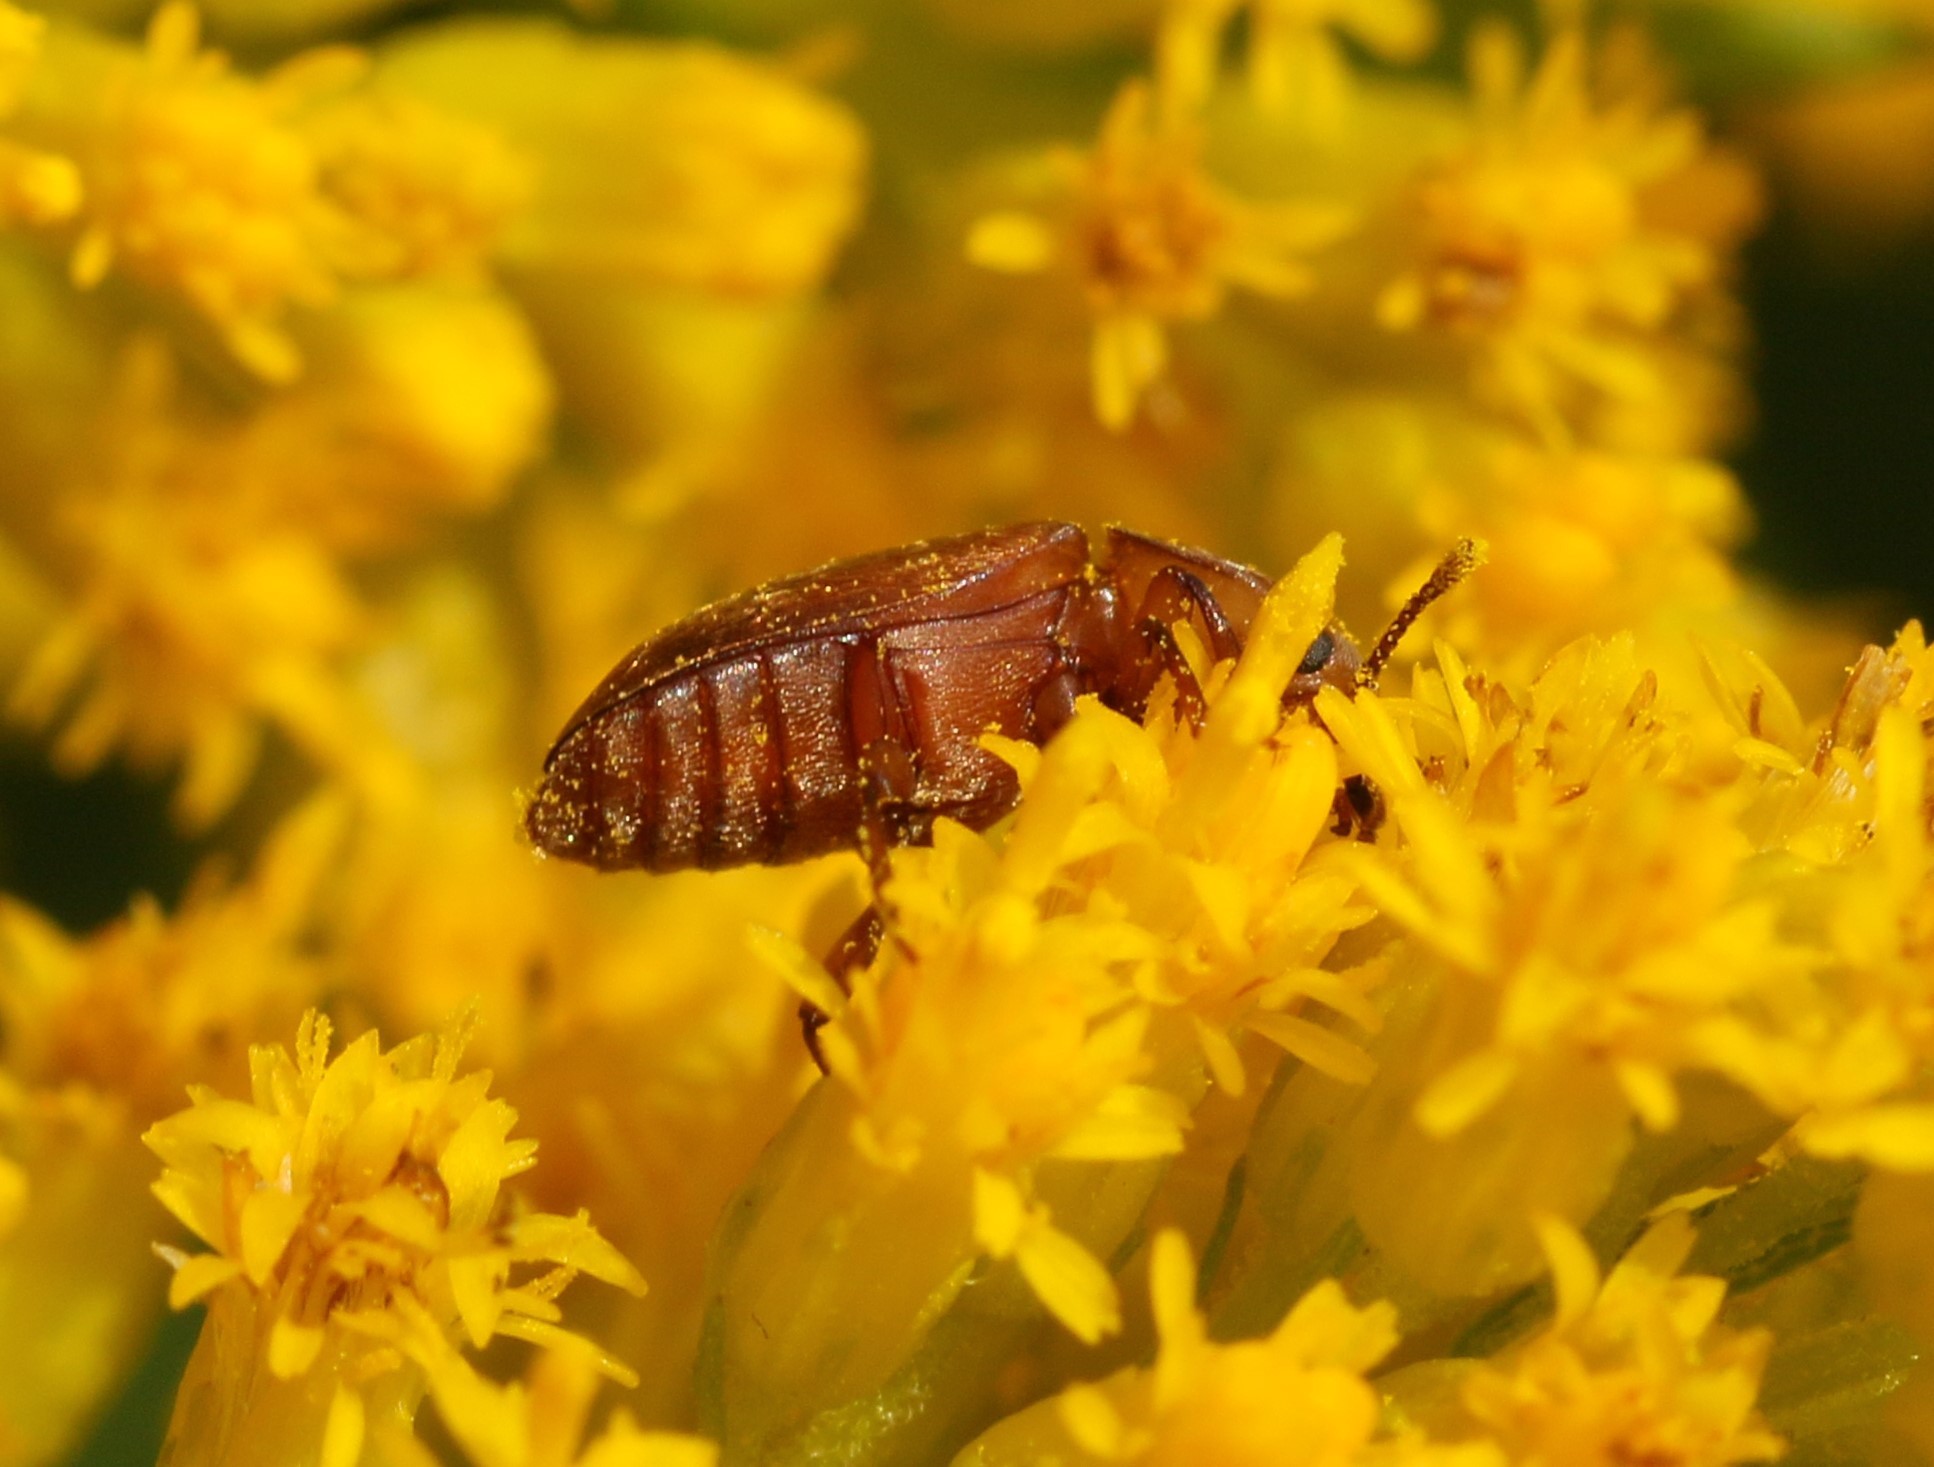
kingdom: Animalia
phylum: Arthropoda
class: Insecta
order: Coleoptera
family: Cryptophagidae
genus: Antherophagus
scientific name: Antherophagus ochraceus
